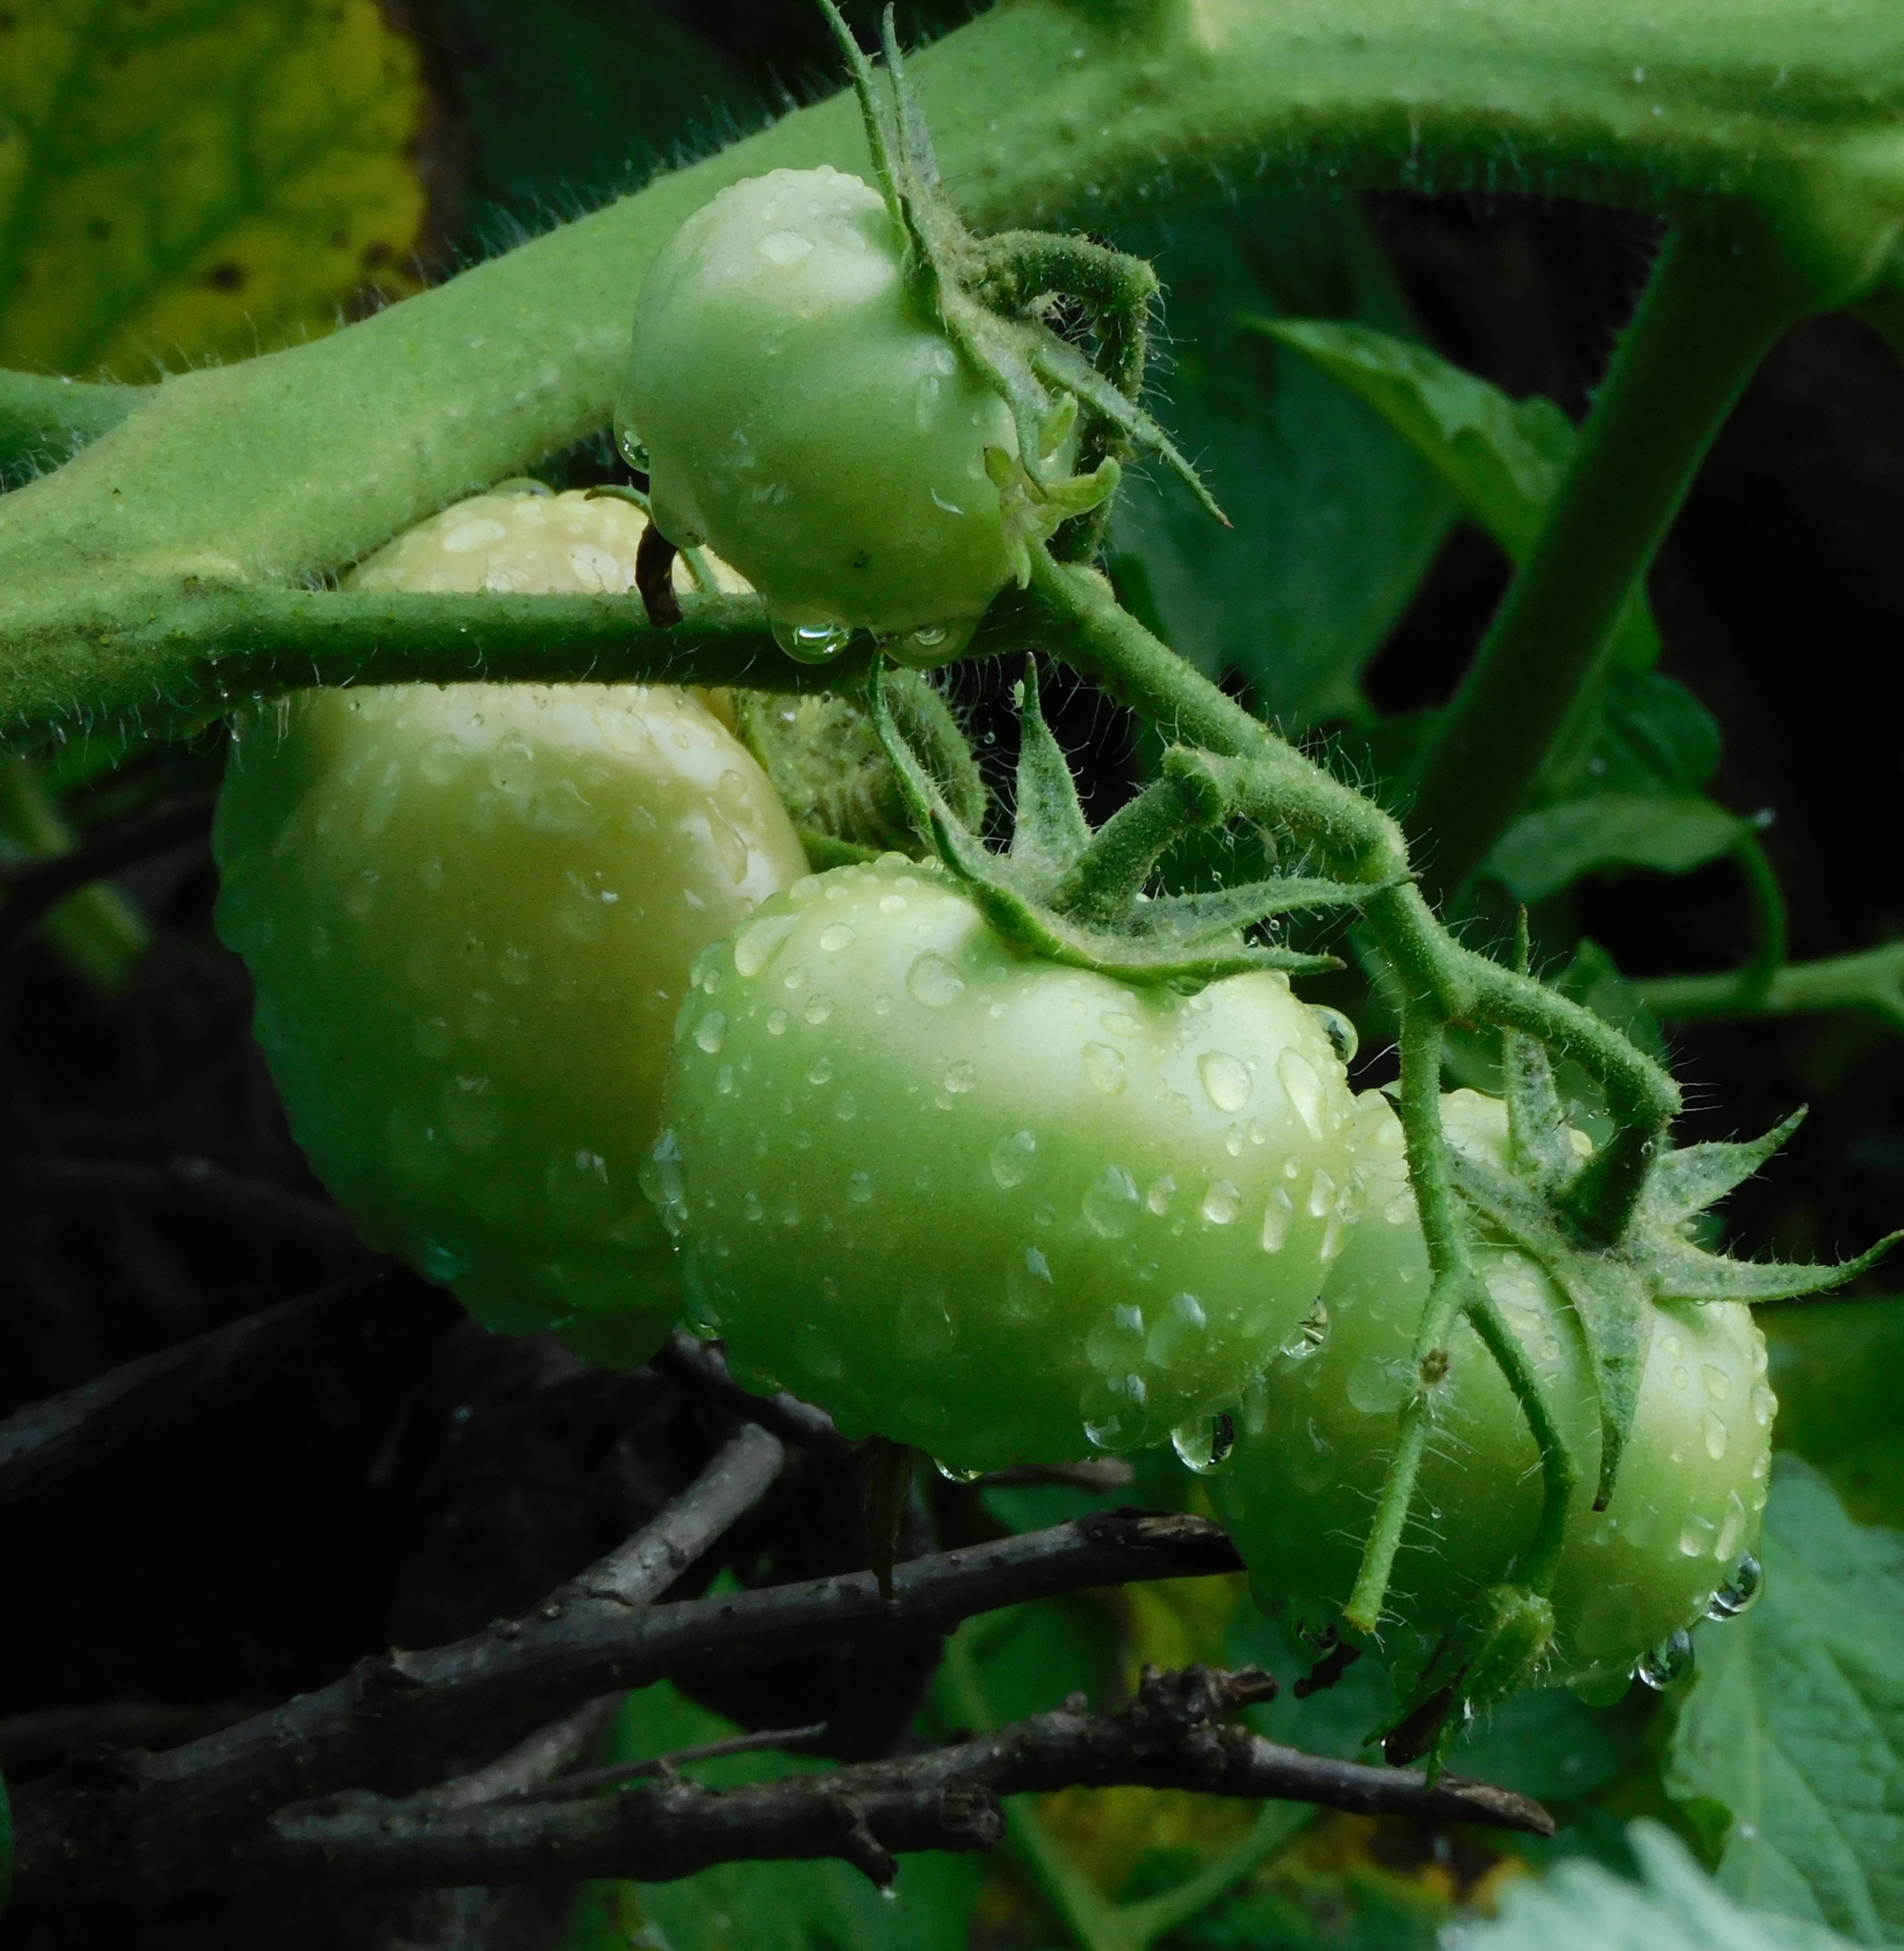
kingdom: Plantae
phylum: Tracheophyta
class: Magnoliopsida
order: Solanales
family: Solanaceae
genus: Solanum
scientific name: Solanum lycopersicum
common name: Garden tomato
